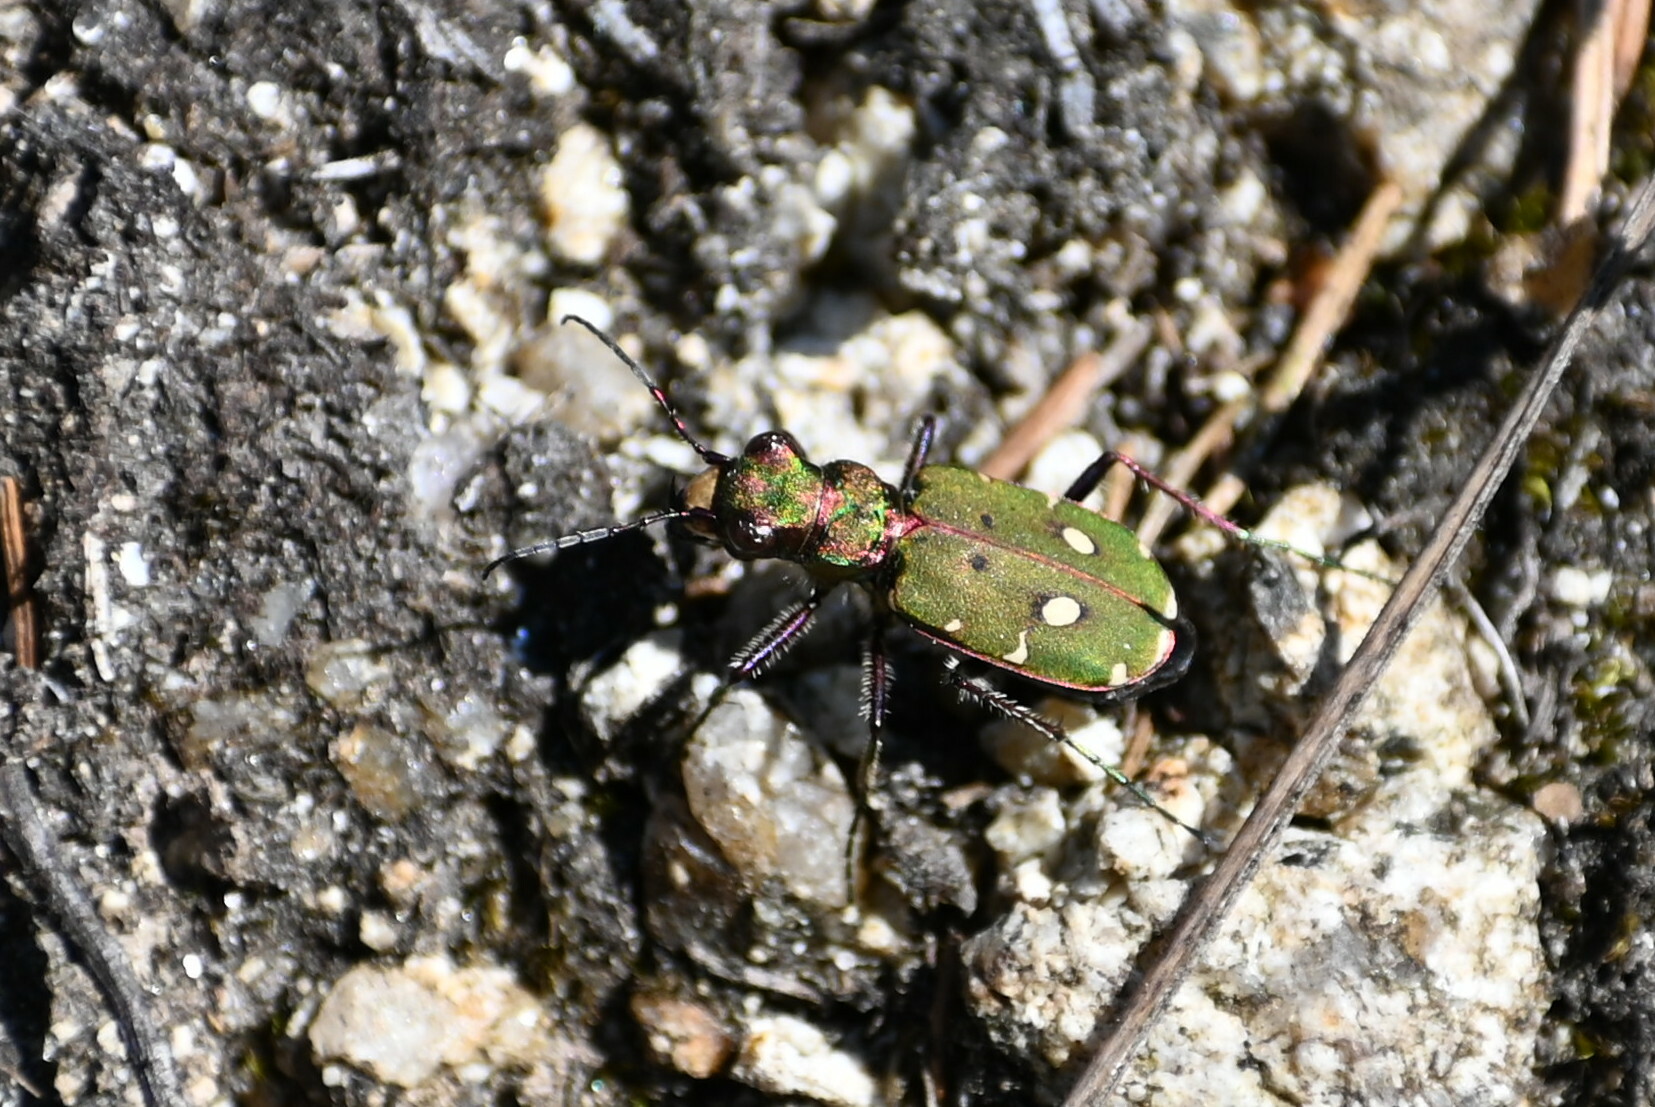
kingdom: Animalia
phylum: Arthropoda
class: Insecta
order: Coleoptera
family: Carabidae
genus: Cicindela
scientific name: Cicindela campestris
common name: Common tiger beetle
